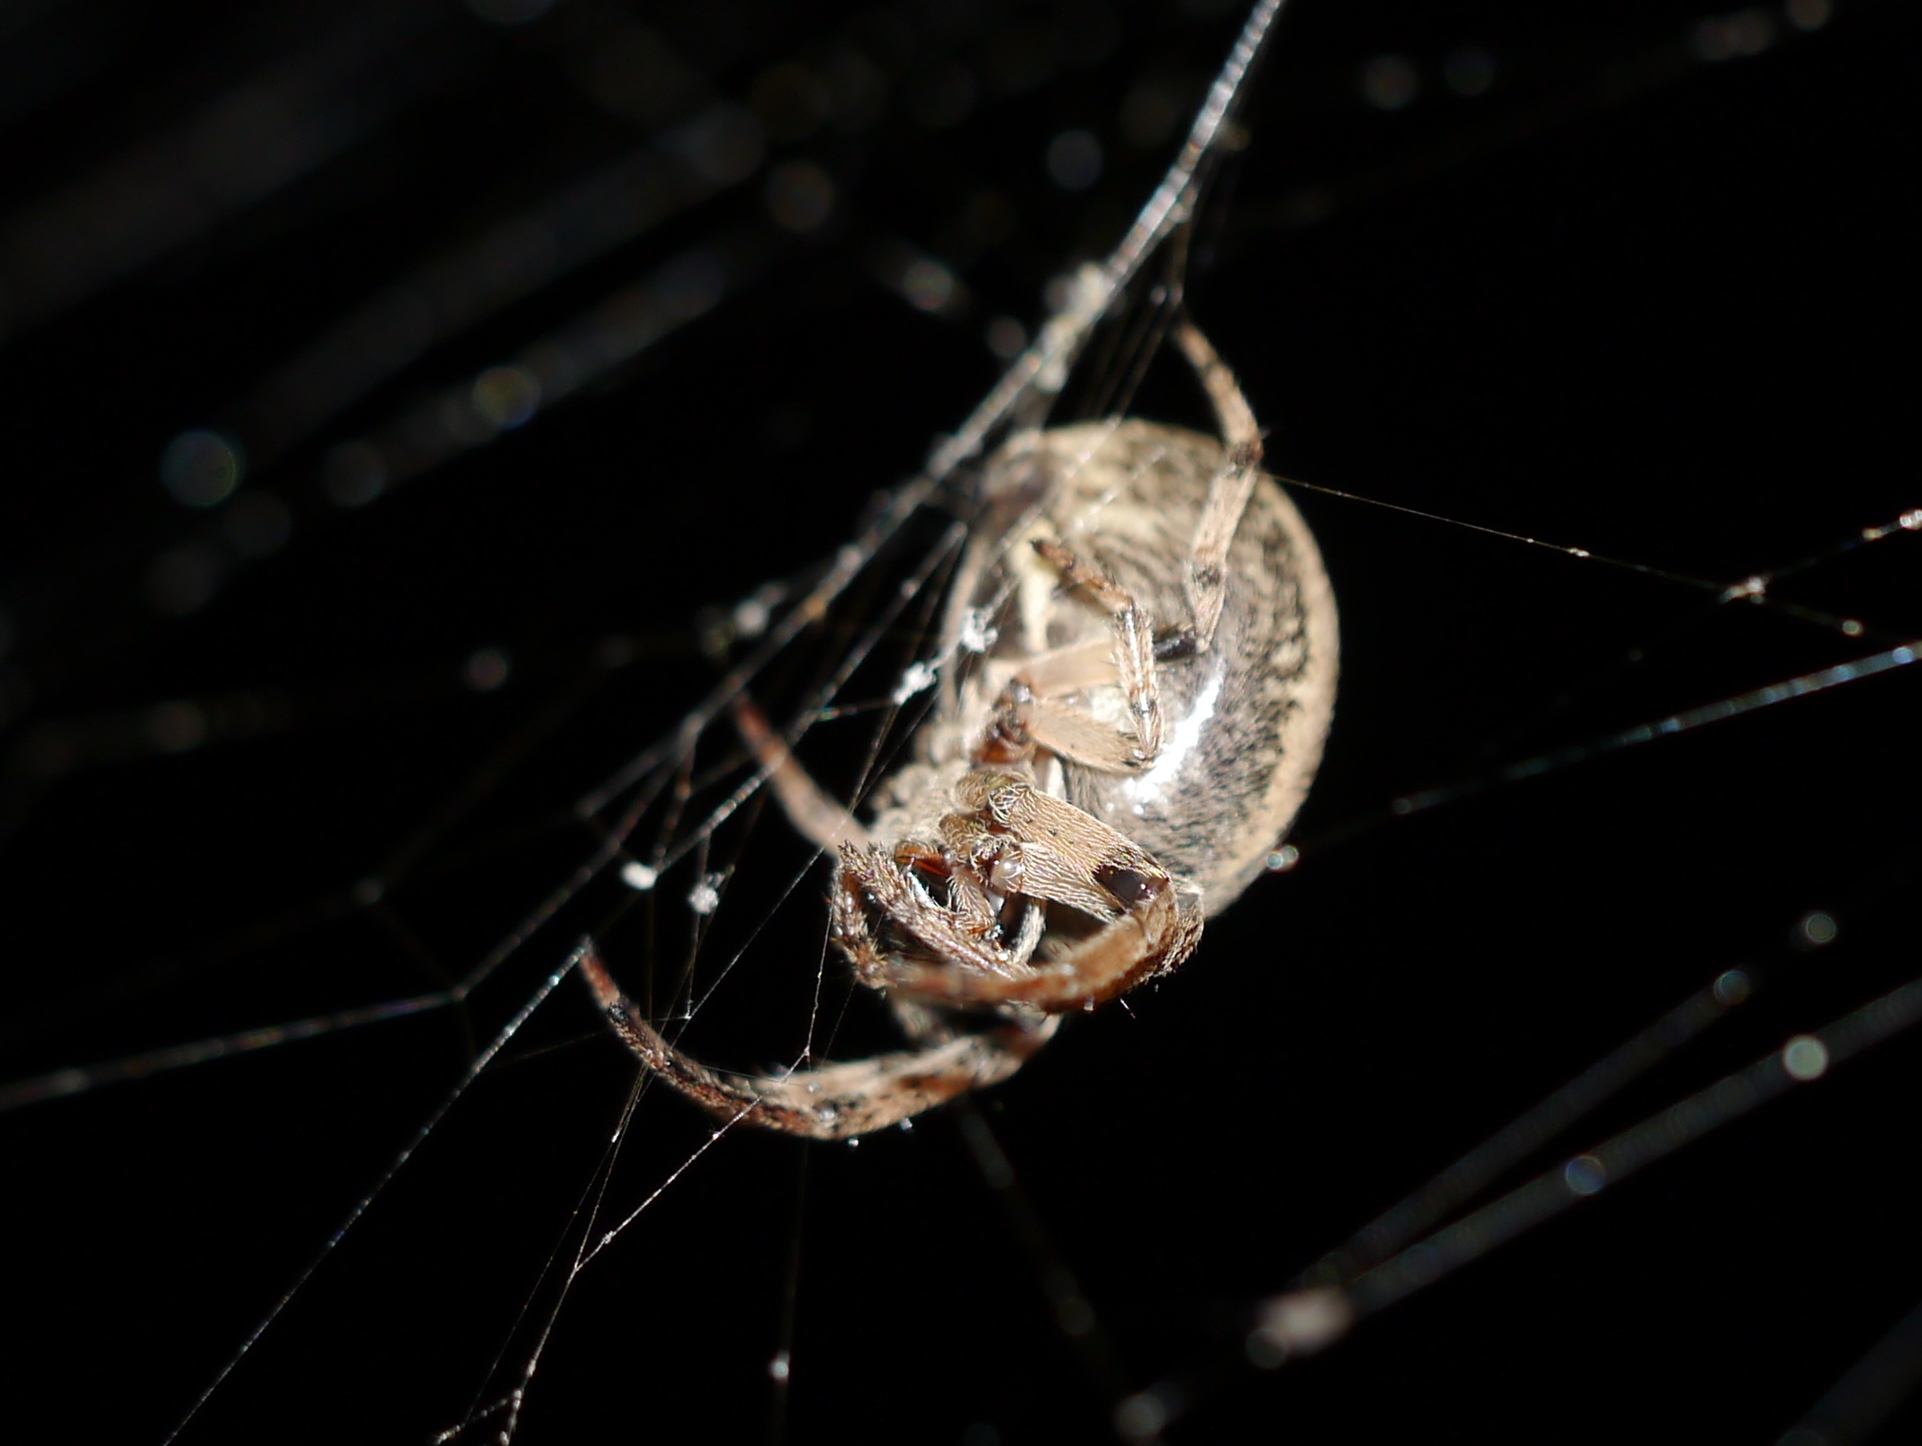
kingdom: Animalia
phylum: Arthropoda
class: Arachnida
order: Araneae
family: Araneidae
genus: Larinioides
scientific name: Larinioides cornutus
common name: Furrow orbweaver
